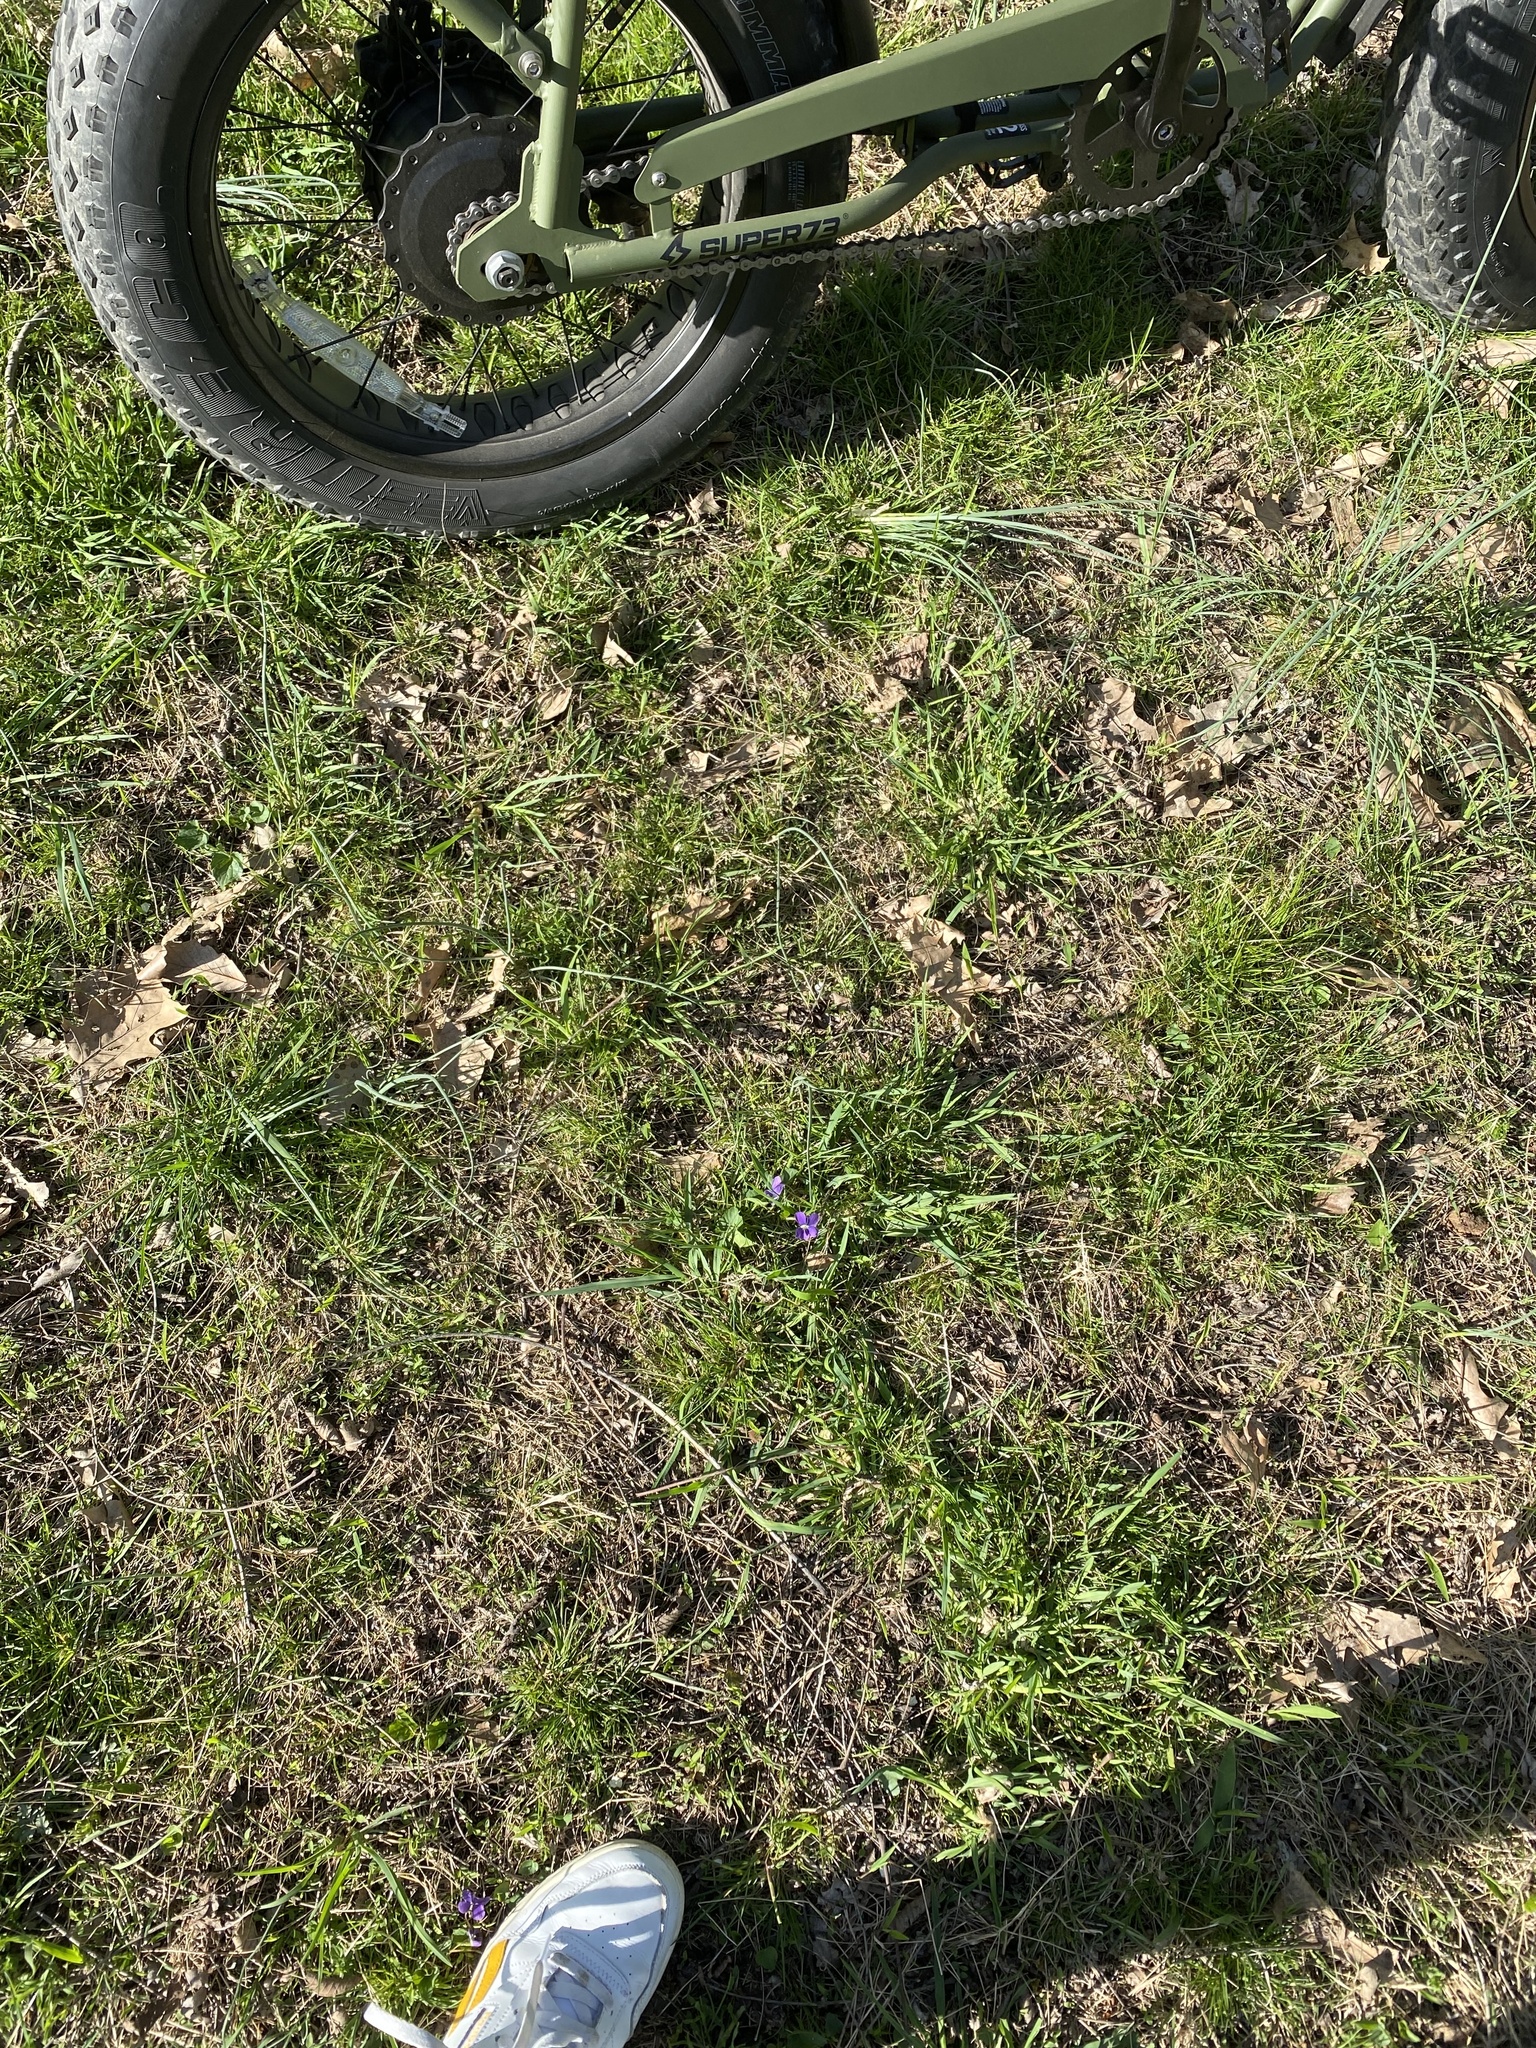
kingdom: Plantae
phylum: Tracheophyta
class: Magnoliopsida
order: Malpighiales
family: Violaceae
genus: Viola
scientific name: Viola sororia
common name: Dooryard violet
